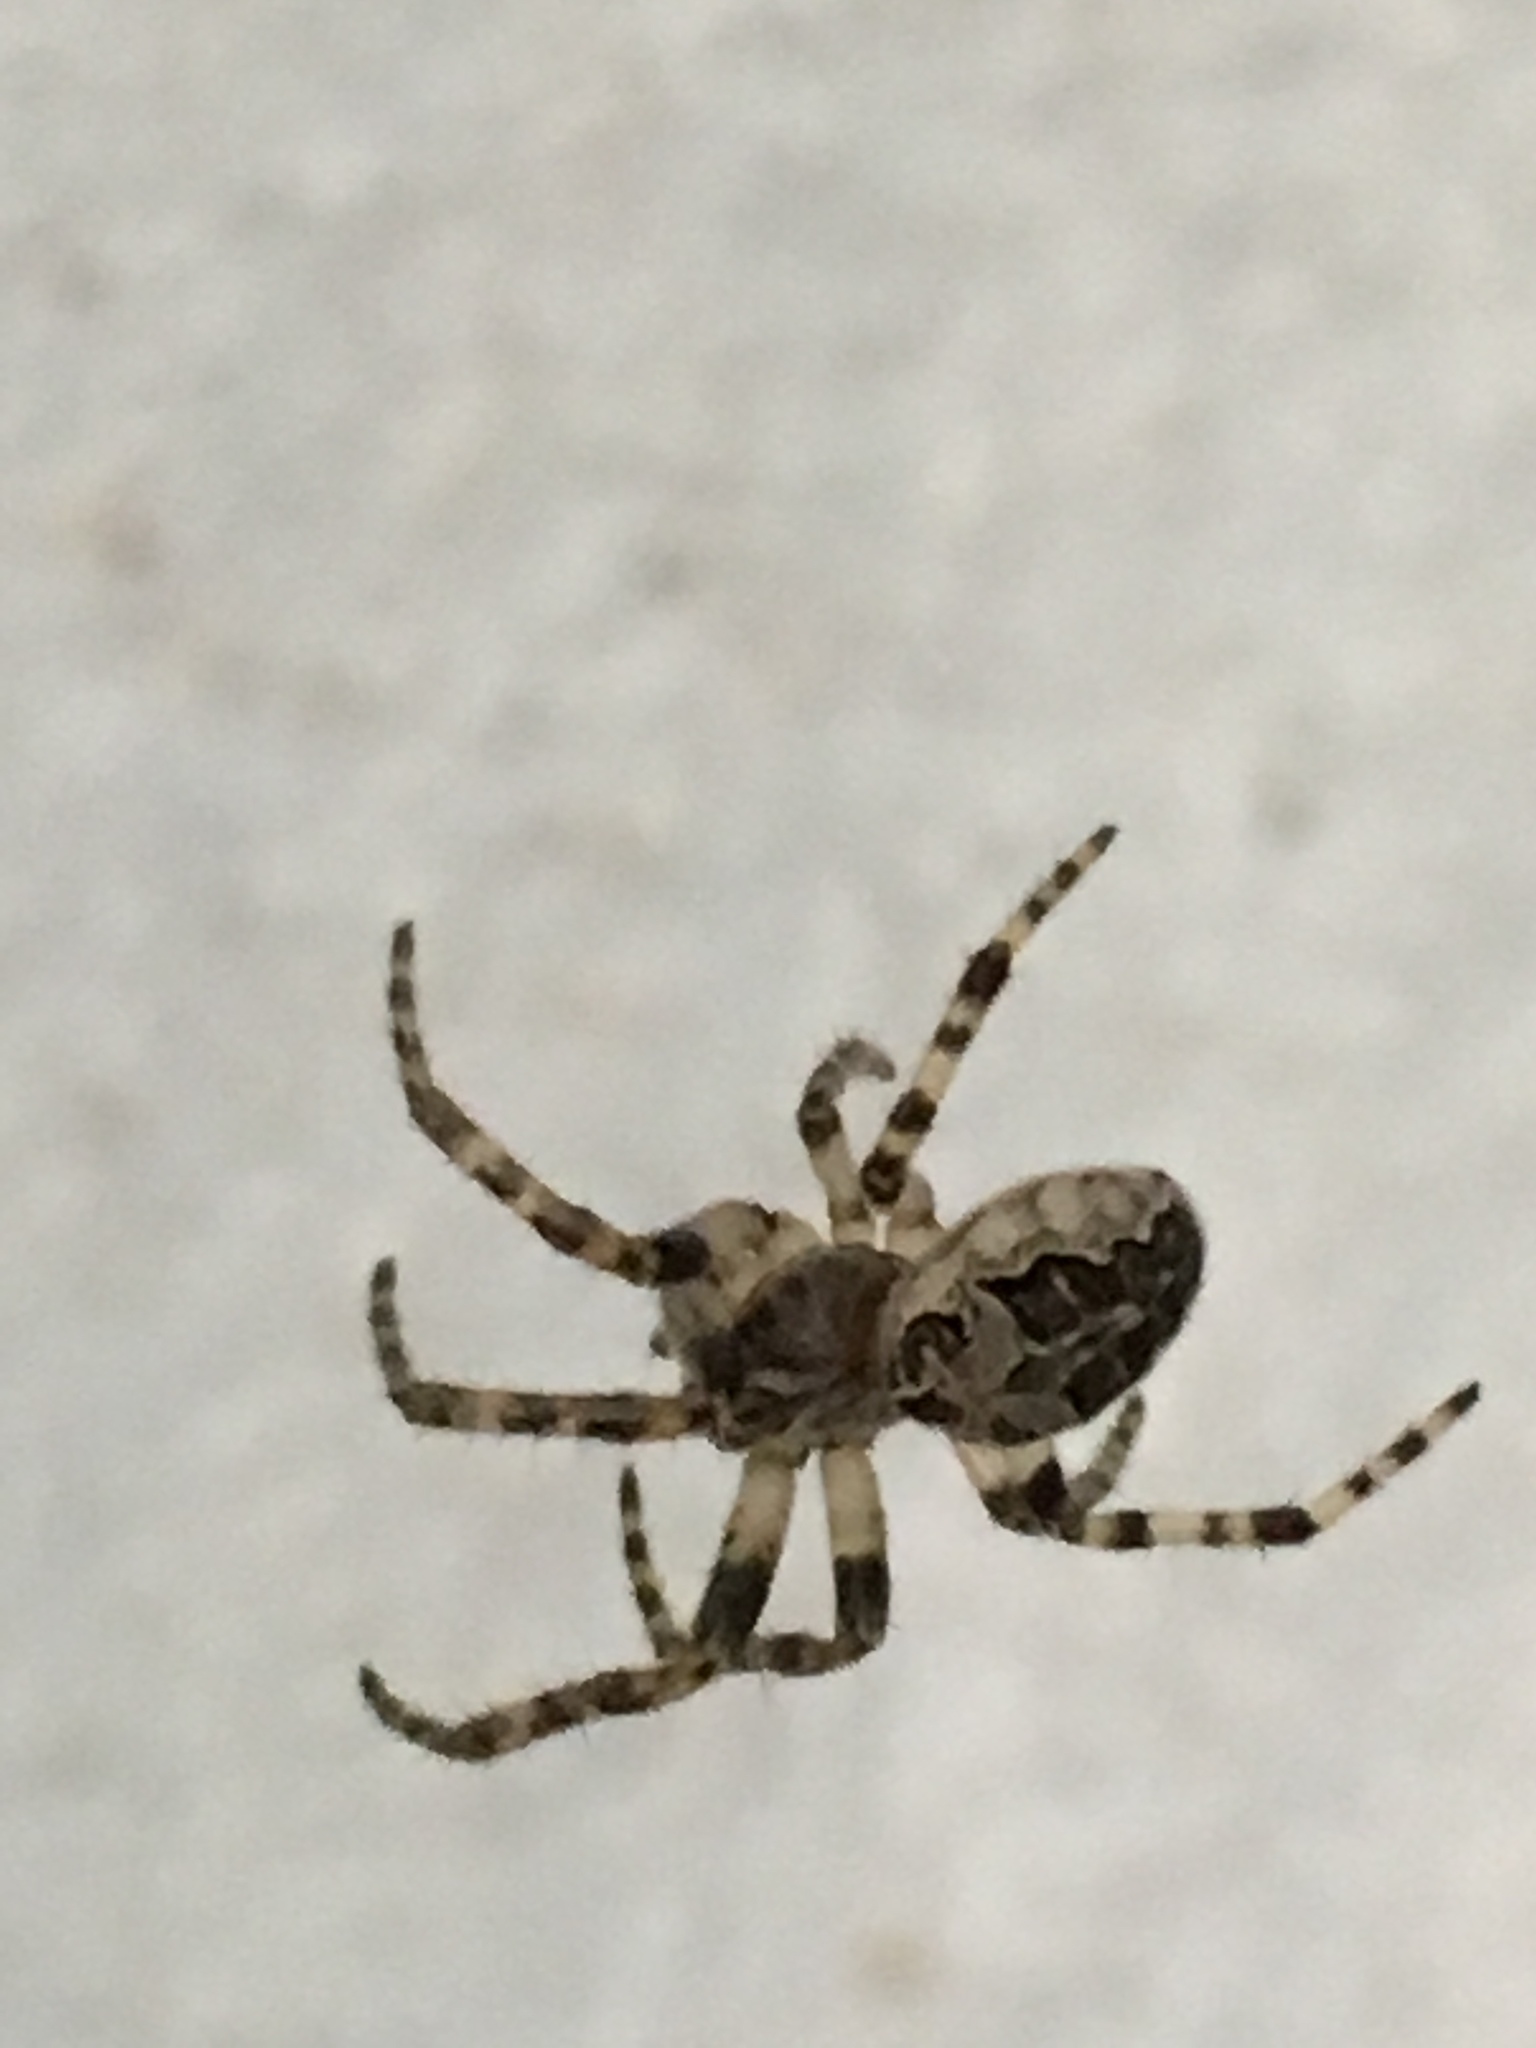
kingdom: Animalia
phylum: Arthropoda
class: Arachnida
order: Araneae
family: Araneidae
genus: Larinioides
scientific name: Larinioides sclopetarius
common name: Bridge orbweaver
